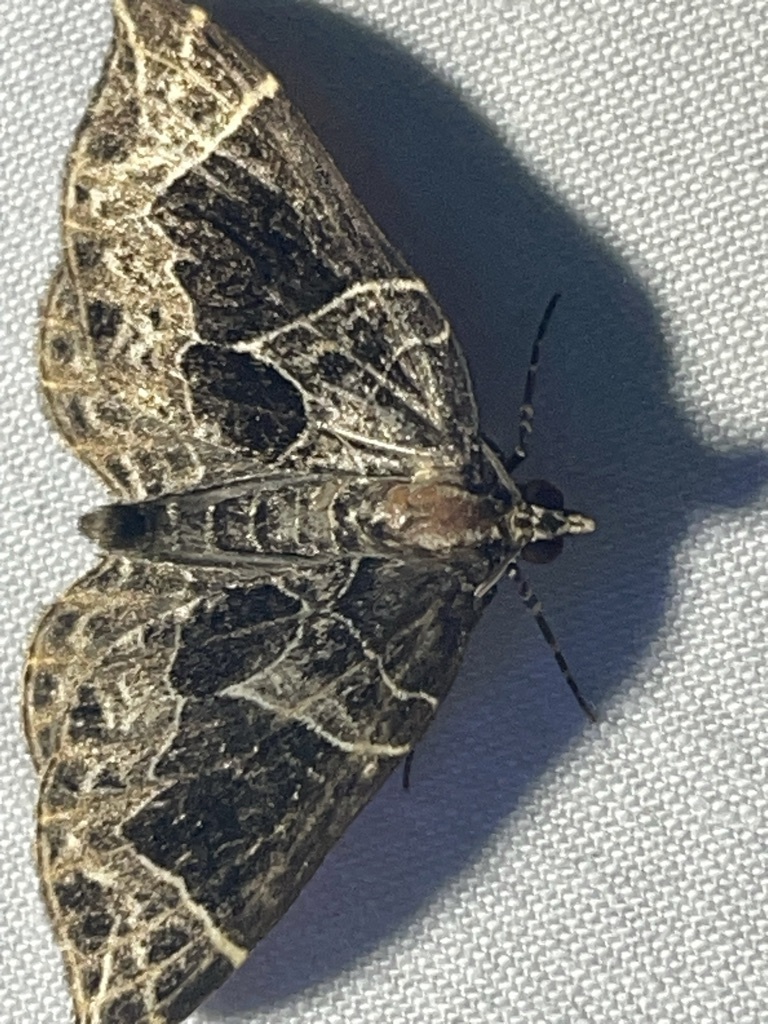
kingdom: Animalia
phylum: Arthropoda
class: Insecta
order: Lepidoptera
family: Geometridae
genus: Ecliptopera
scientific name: Ecliptopera atricolorata
